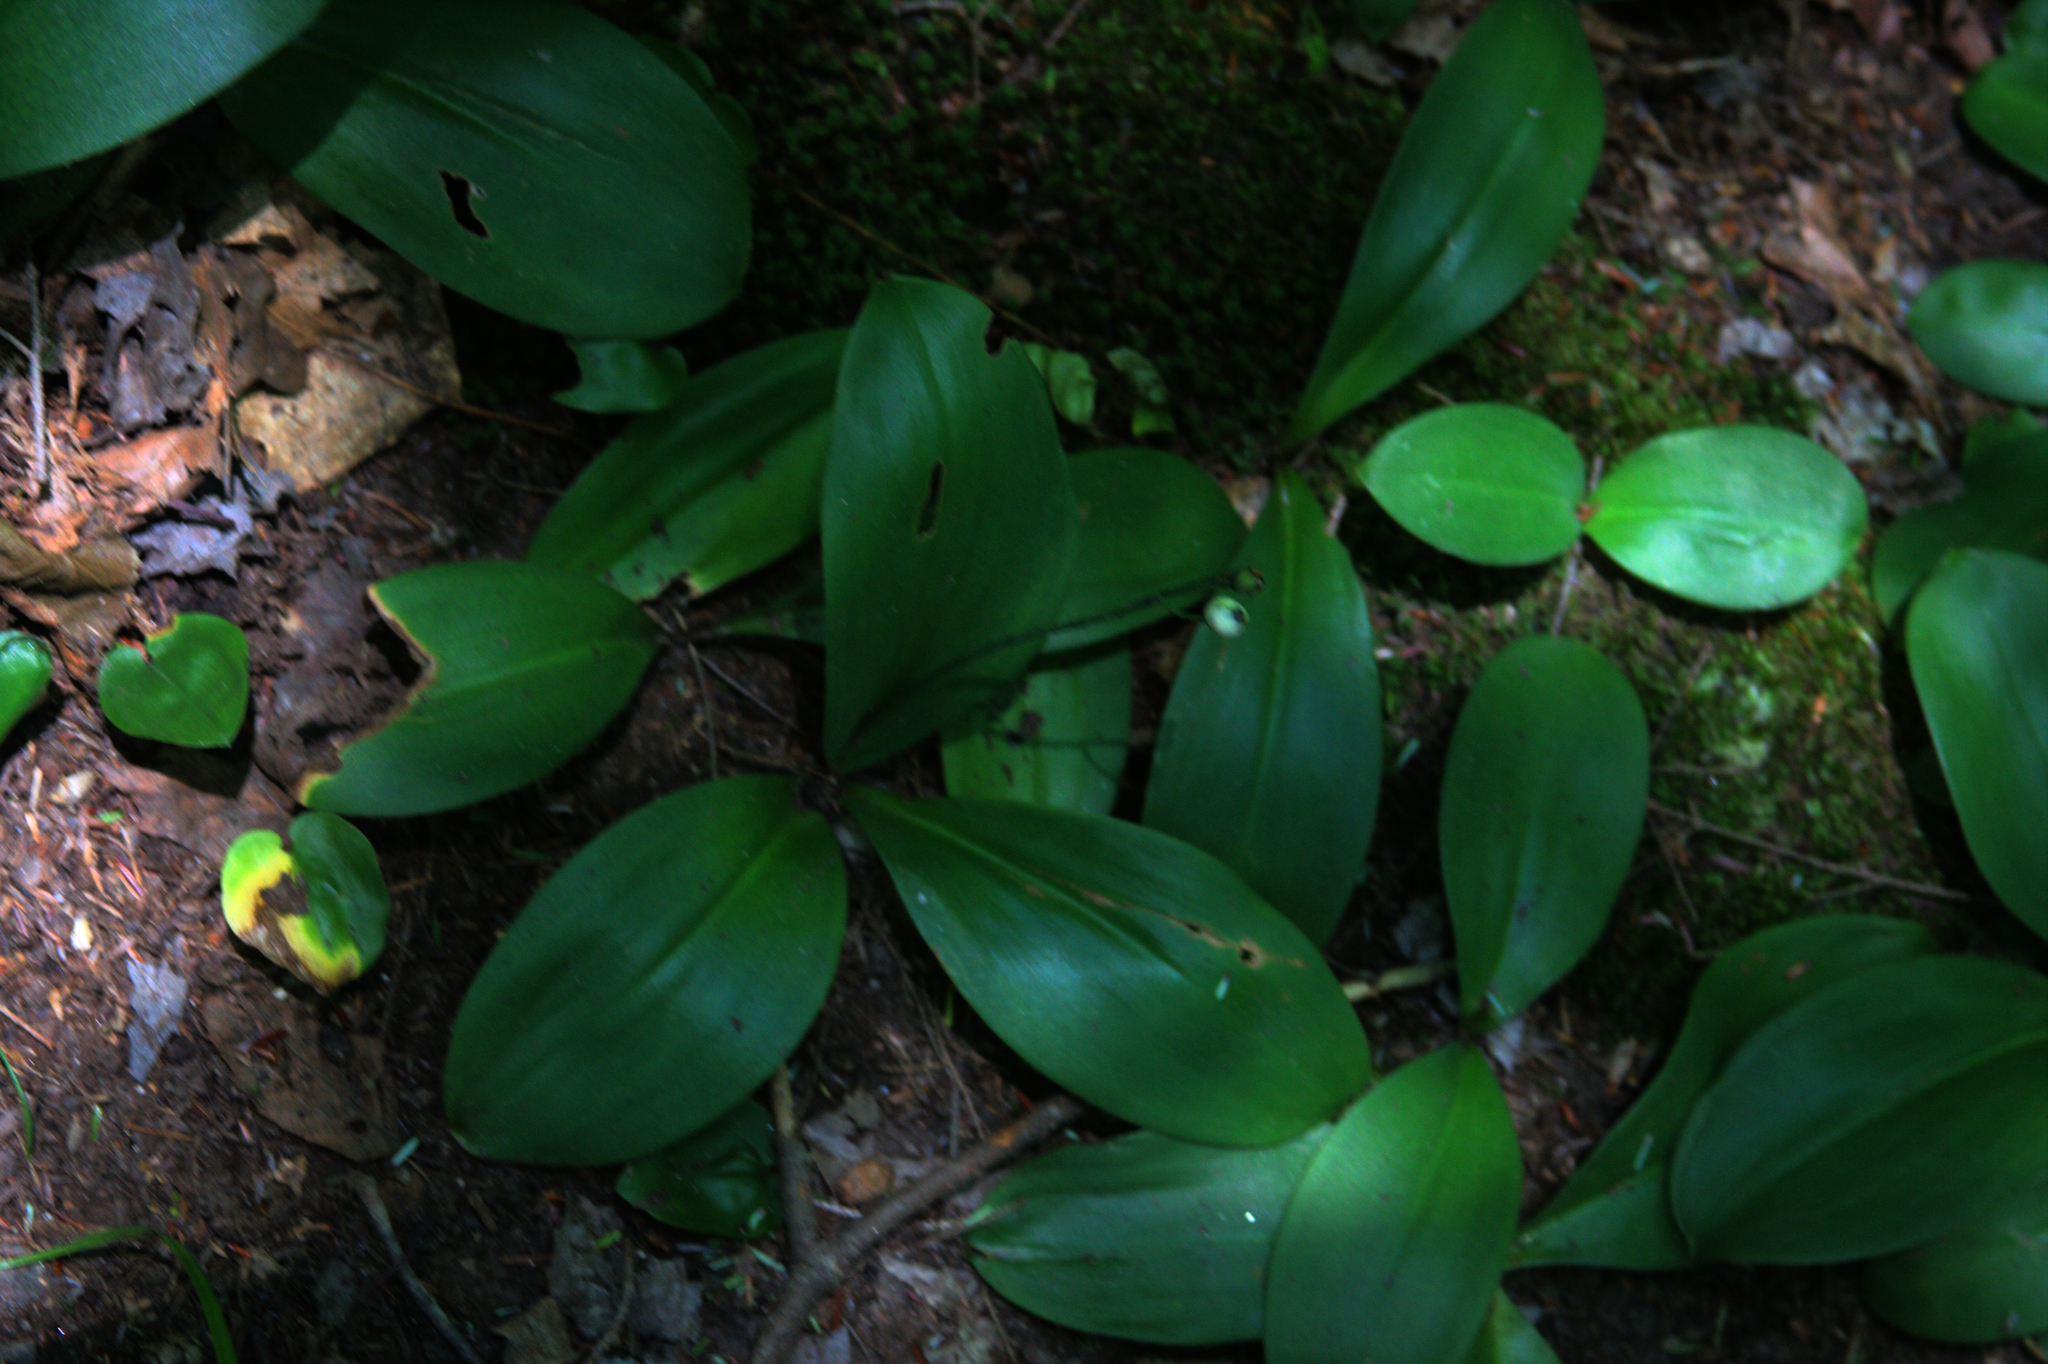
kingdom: Plantae
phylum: Tracheophyta
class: Liliopsida
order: Liliales
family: Liliaceae
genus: Clintonia
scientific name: Clintonia borealis
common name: Yellow clintonia
